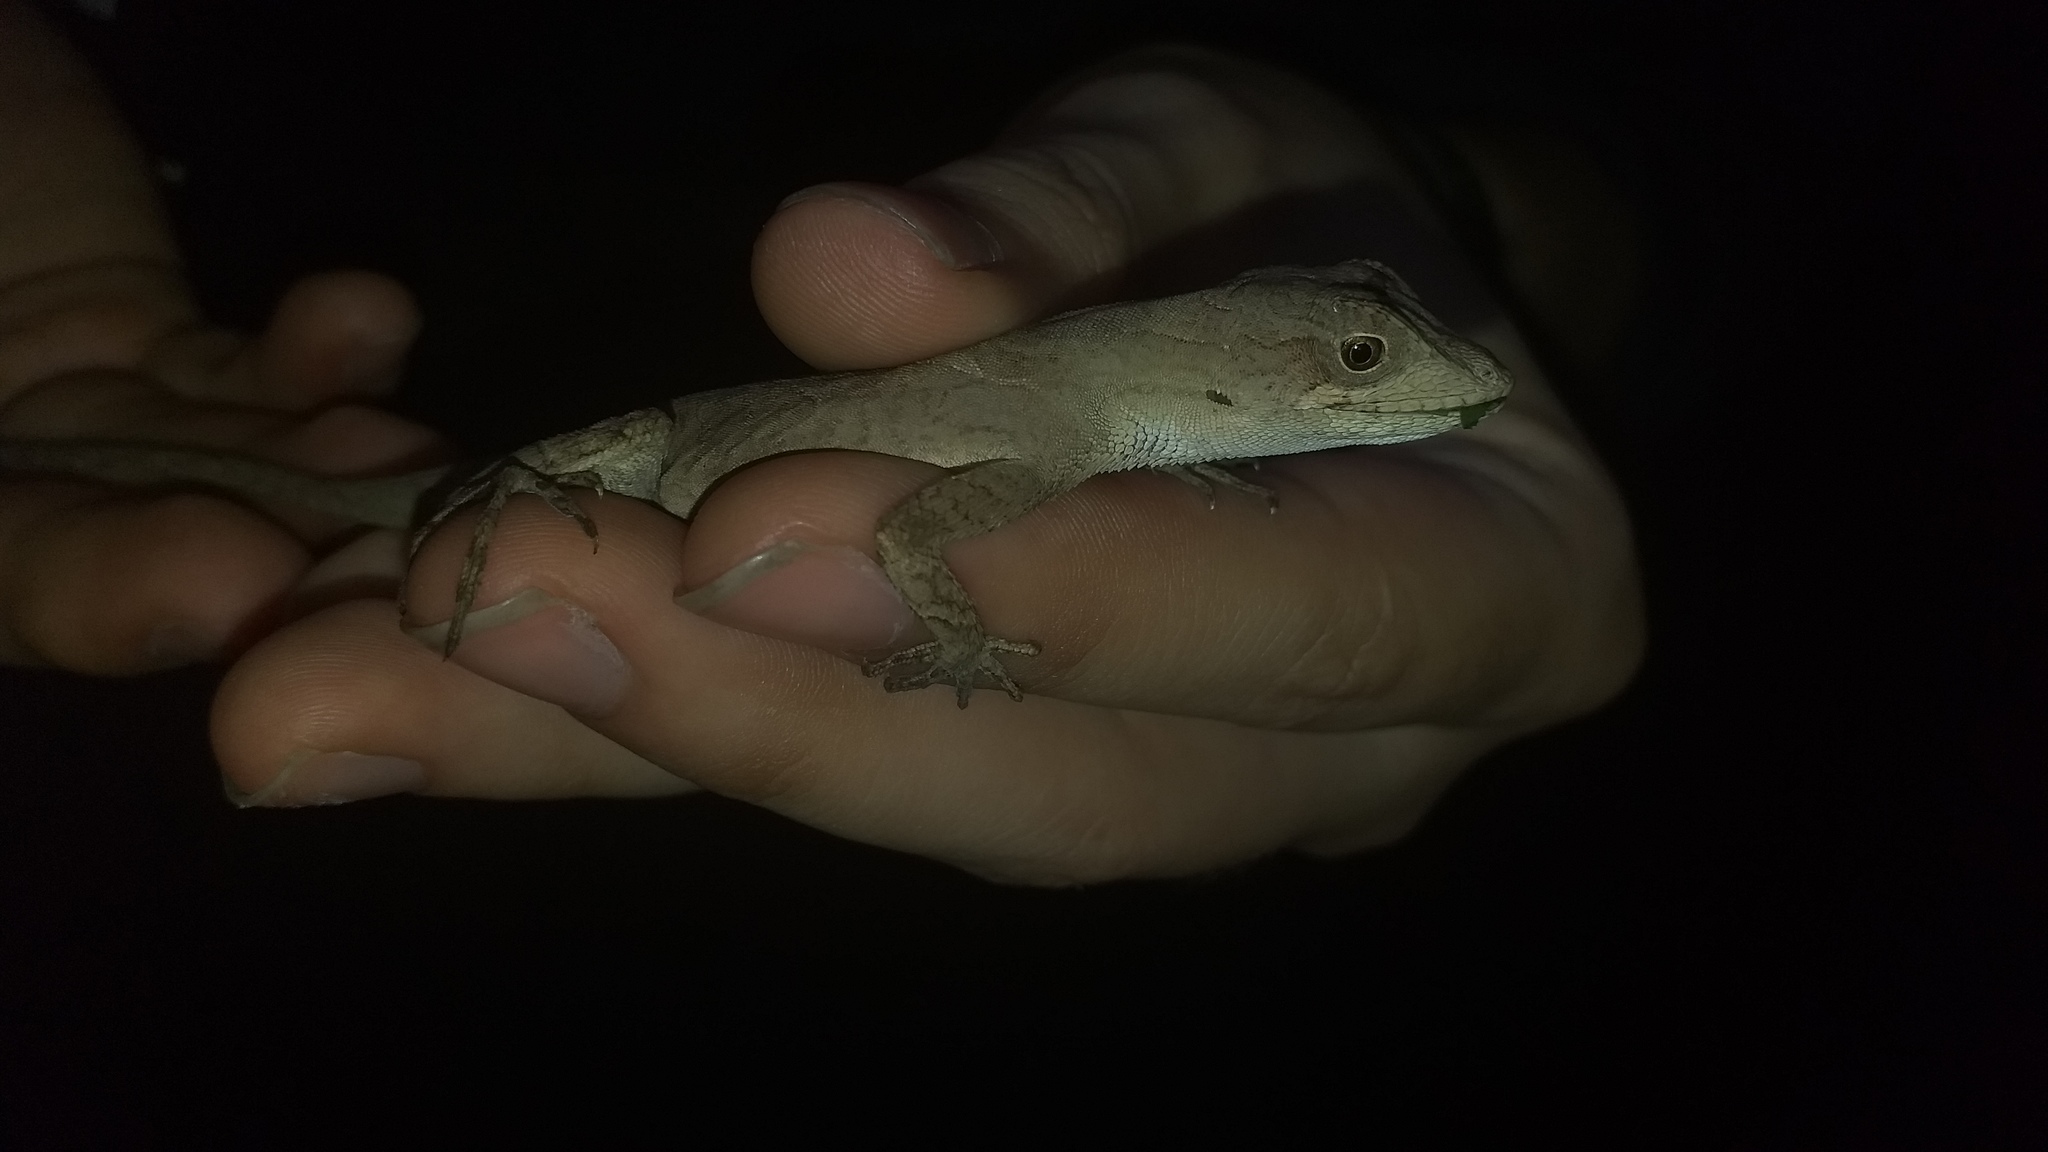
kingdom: Animalia
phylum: Chordata
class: Squamata
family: Dactyloidae
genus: Anolis
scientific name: Anolis scypheus
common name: Yellow-tongued anole
